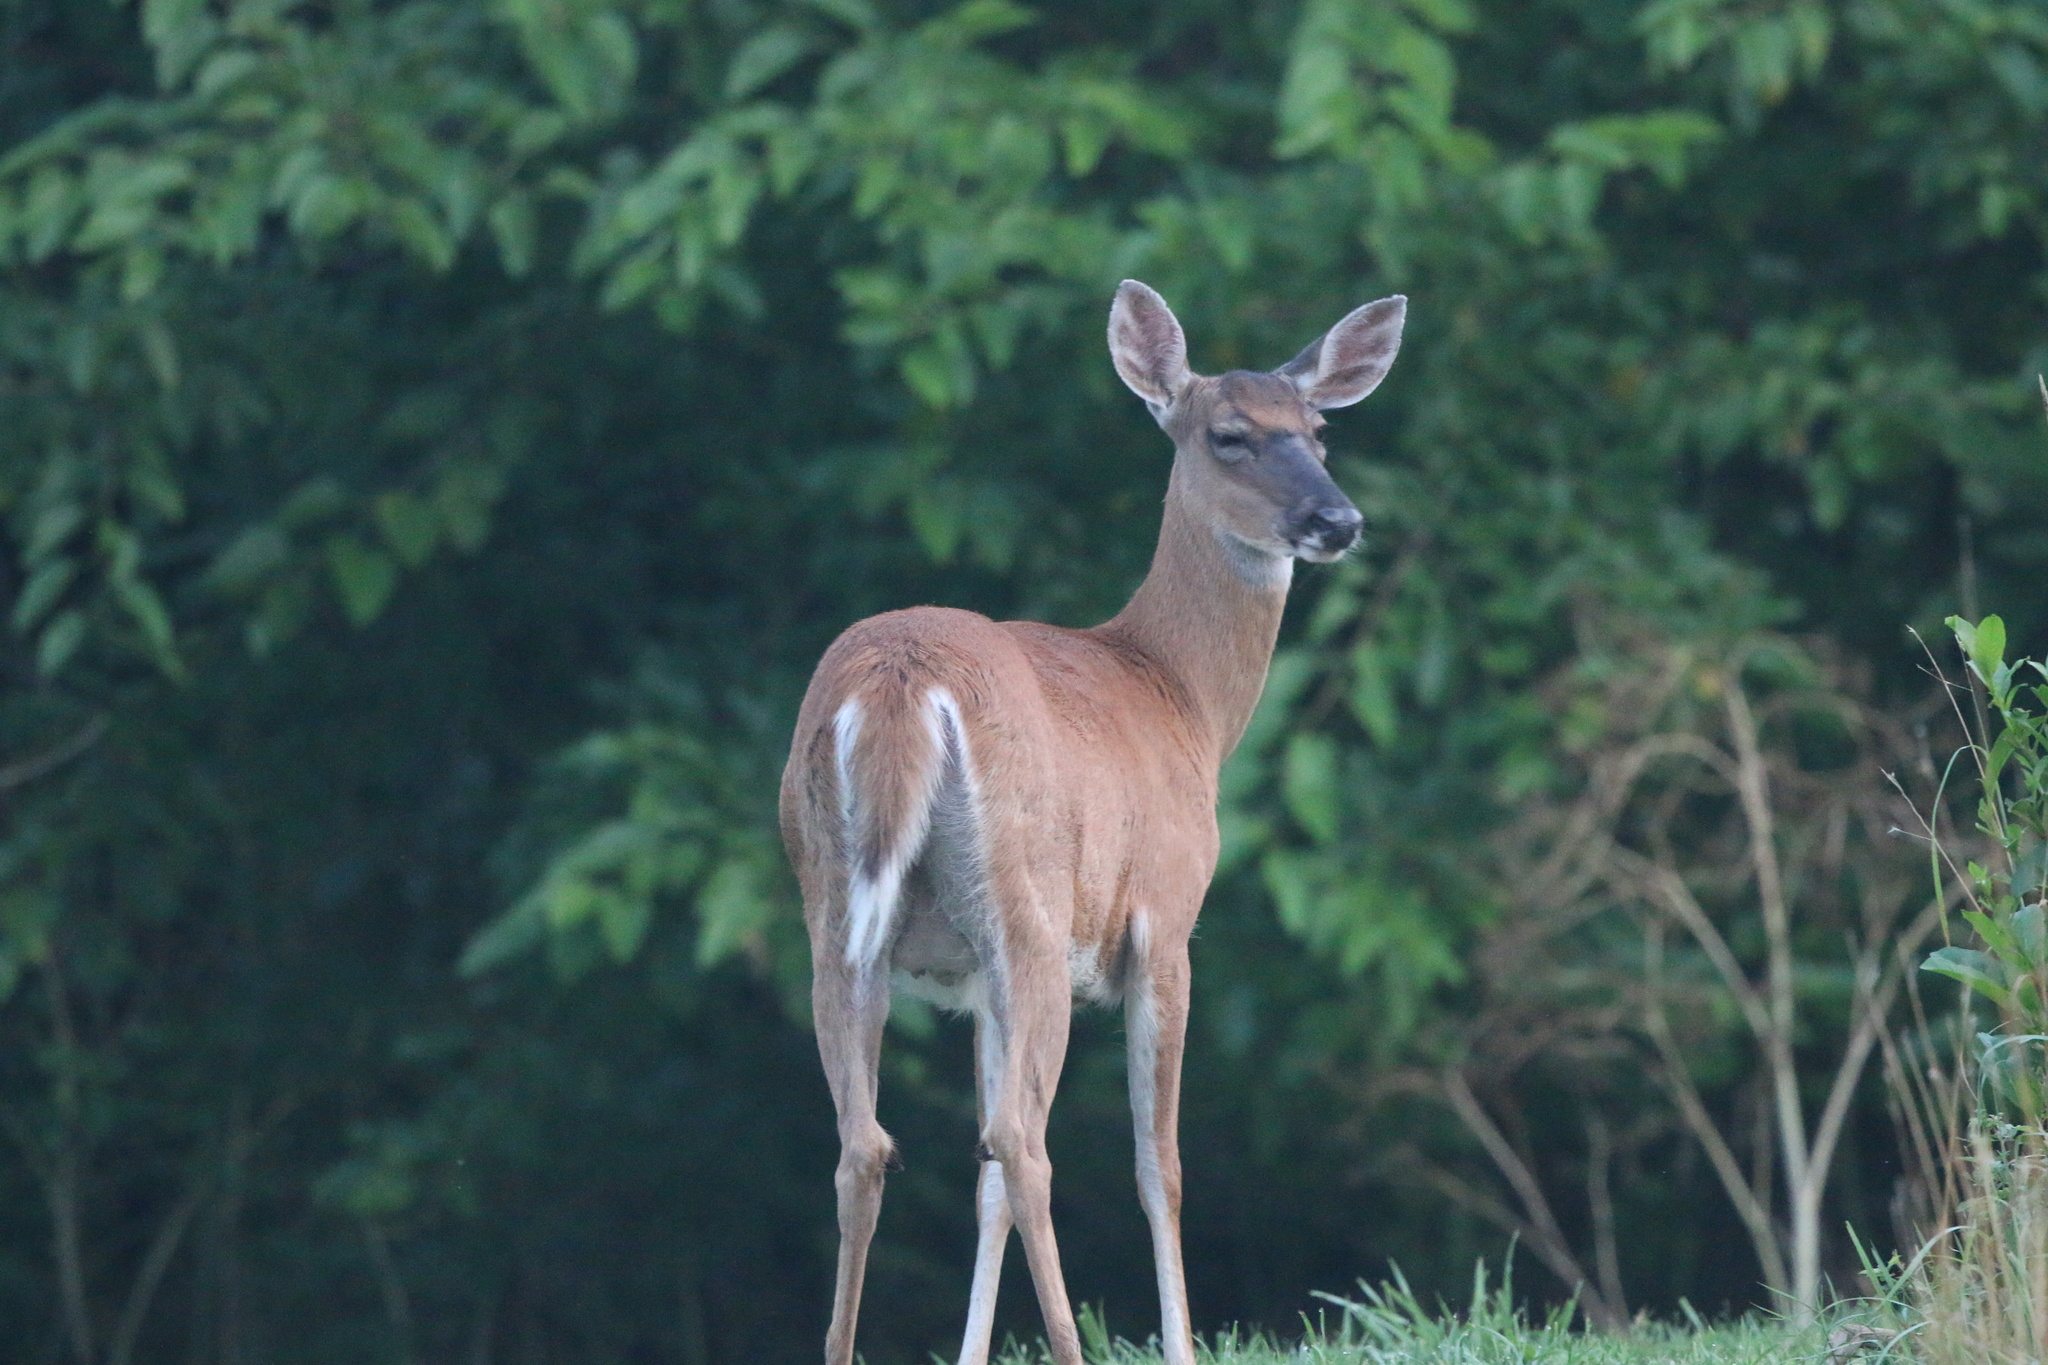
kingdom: Animalia
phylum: Chordata
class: Mammalia
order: Artiodactyla
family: Cervidae
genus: Odocoileus
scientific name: Odocoileus virginianus
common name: White-tailed deer
